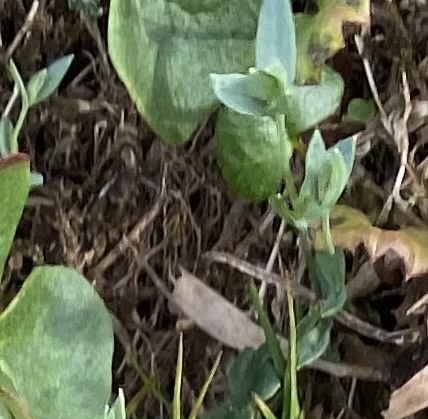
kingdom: Plantae
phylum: Tracheophyta
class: Magnoliopsida
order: Caryophyllales
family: Caryophyllaceae
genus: Stellaria
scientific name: Stellaria longipes
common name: Goldie's starwort
